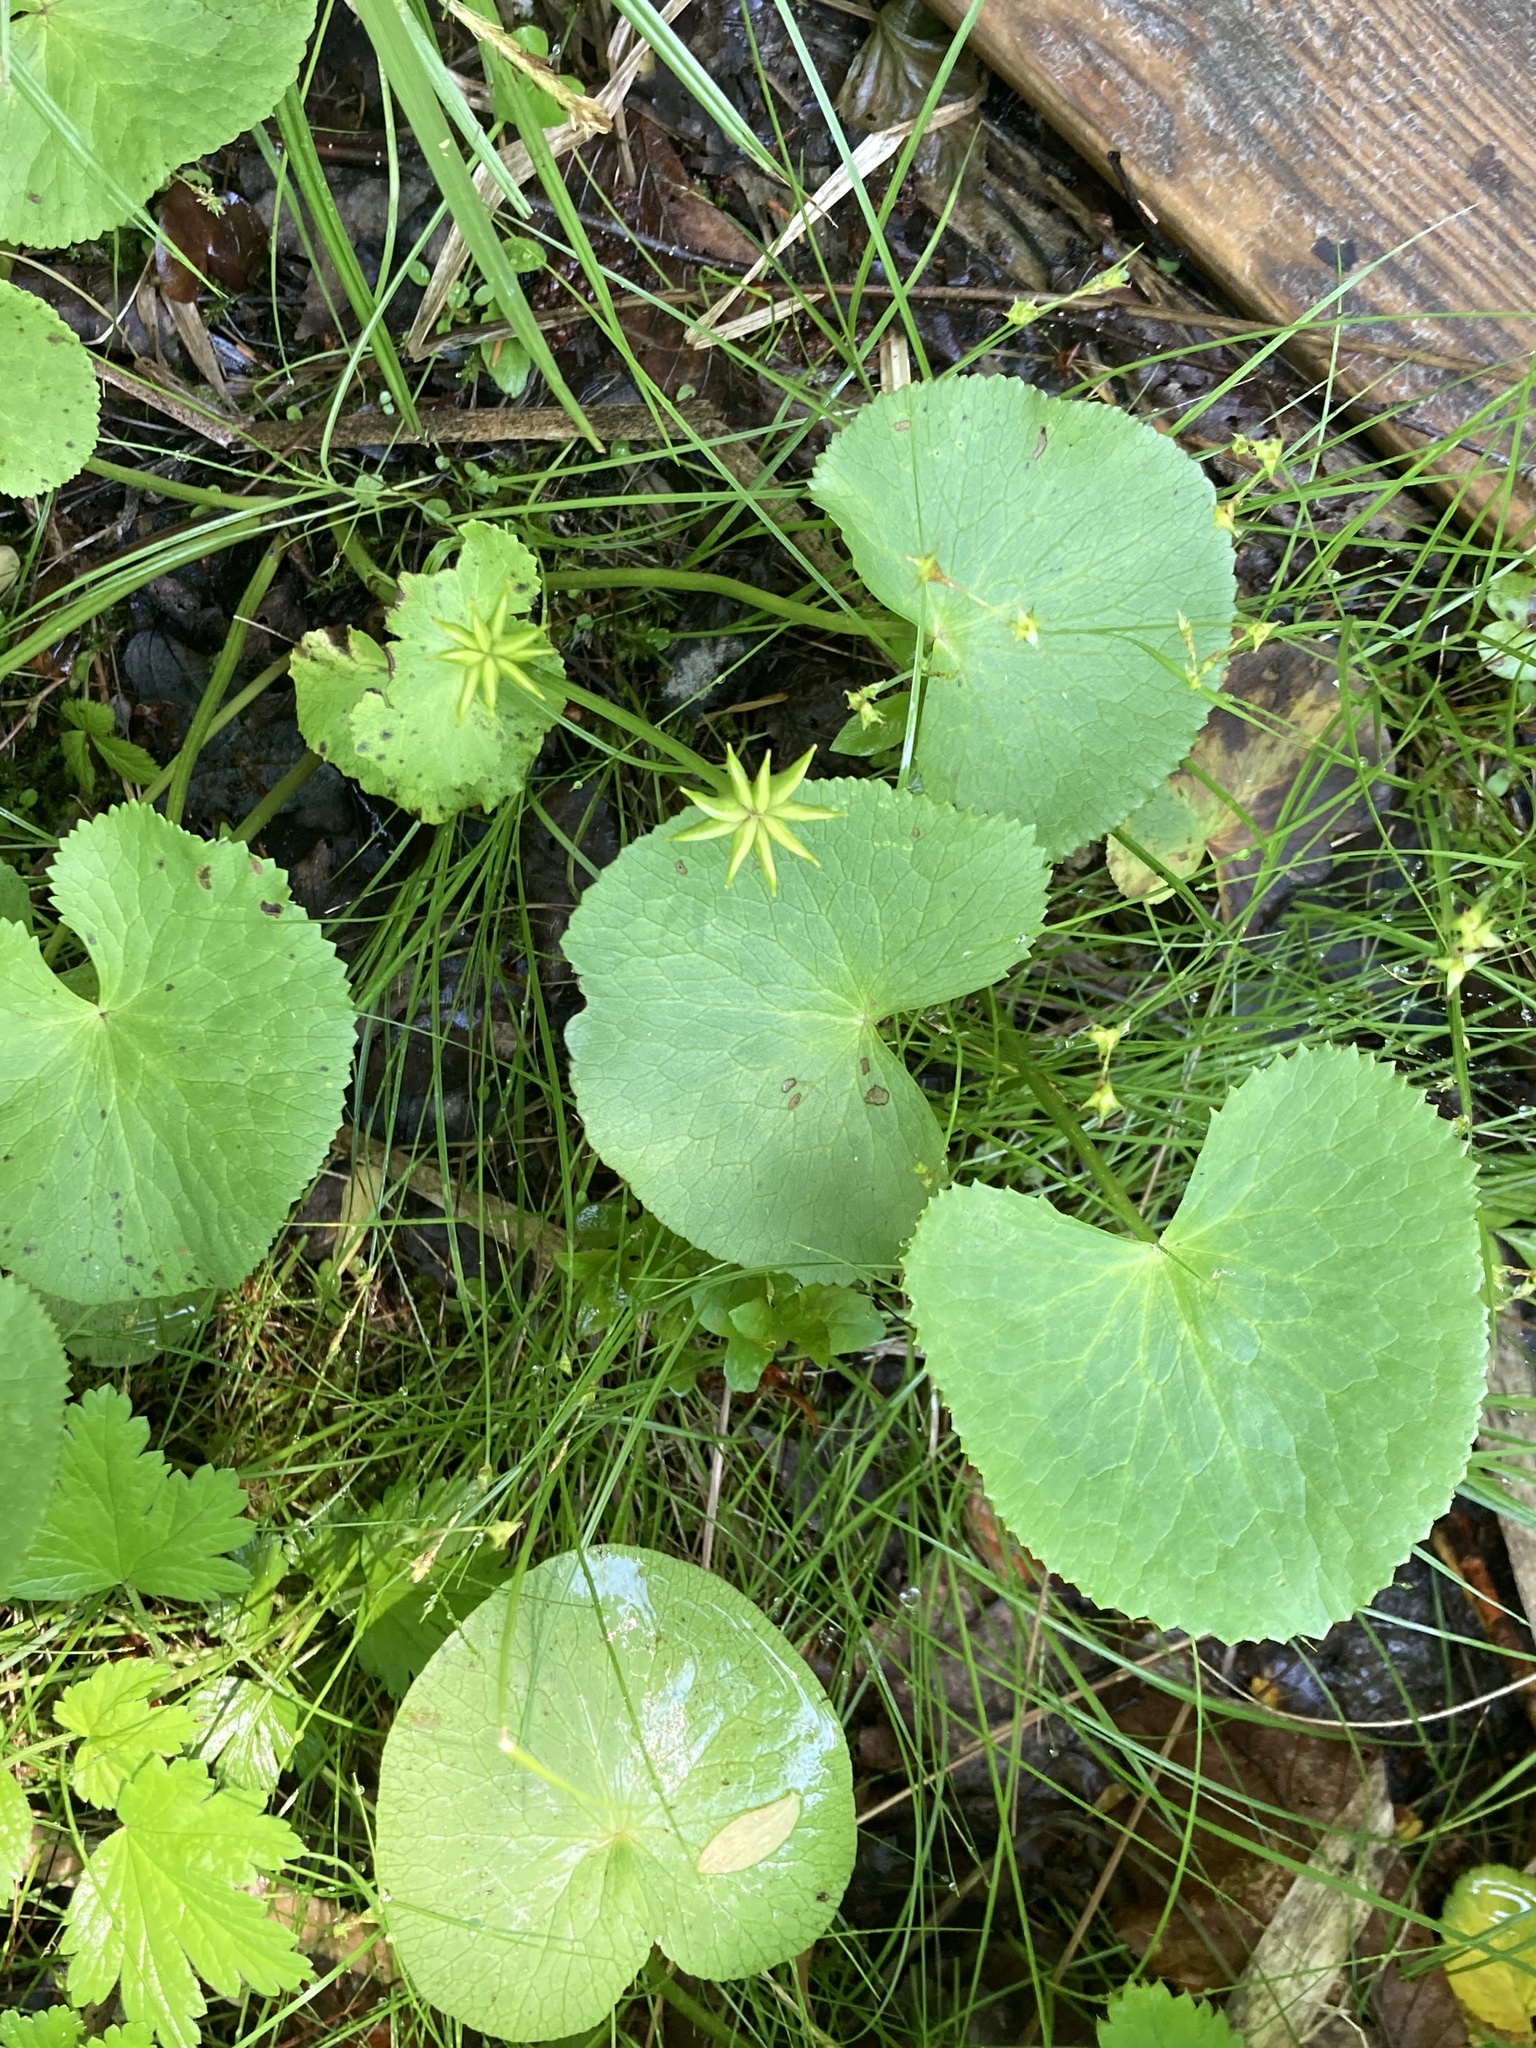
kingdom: Plantae
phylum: Tracheophyta
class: Magnoliopsida
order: Ranunculales
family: Ranunculaceae
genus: Caltha
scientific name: Caltha palustris
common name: Marsh marigold
